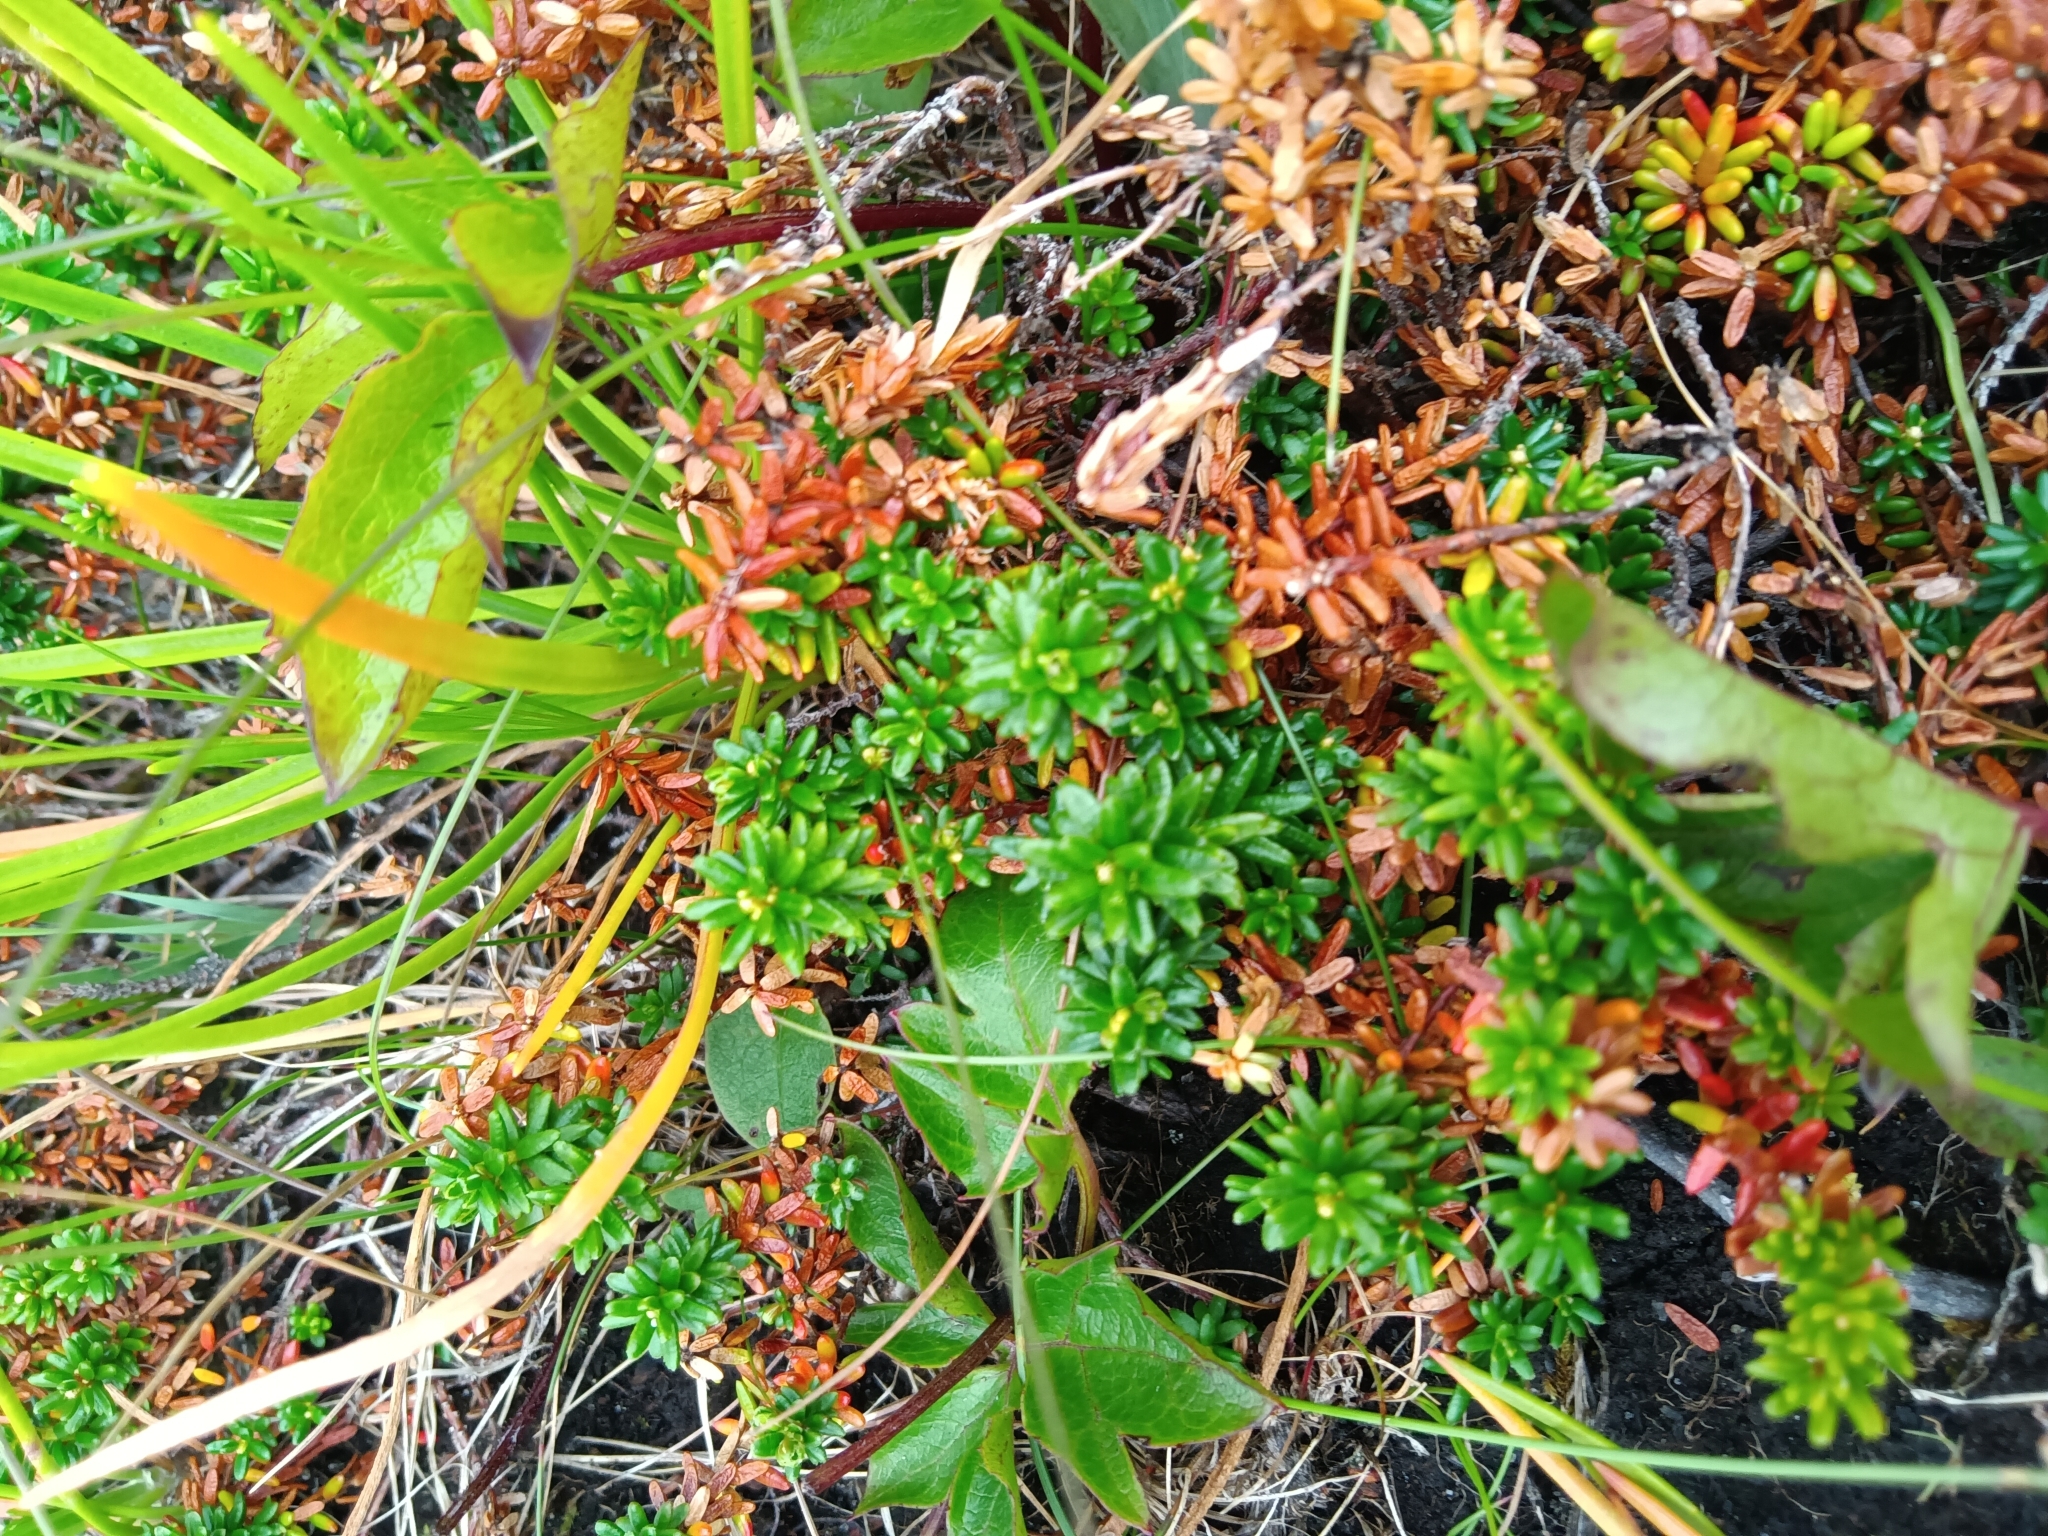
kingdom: Plantae
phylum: Tracheophyta
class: Magnoliopsida
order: Ericales
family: Ericaceae
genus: Empetrum
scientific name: Empetrum nigrum
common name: Black crowberry
